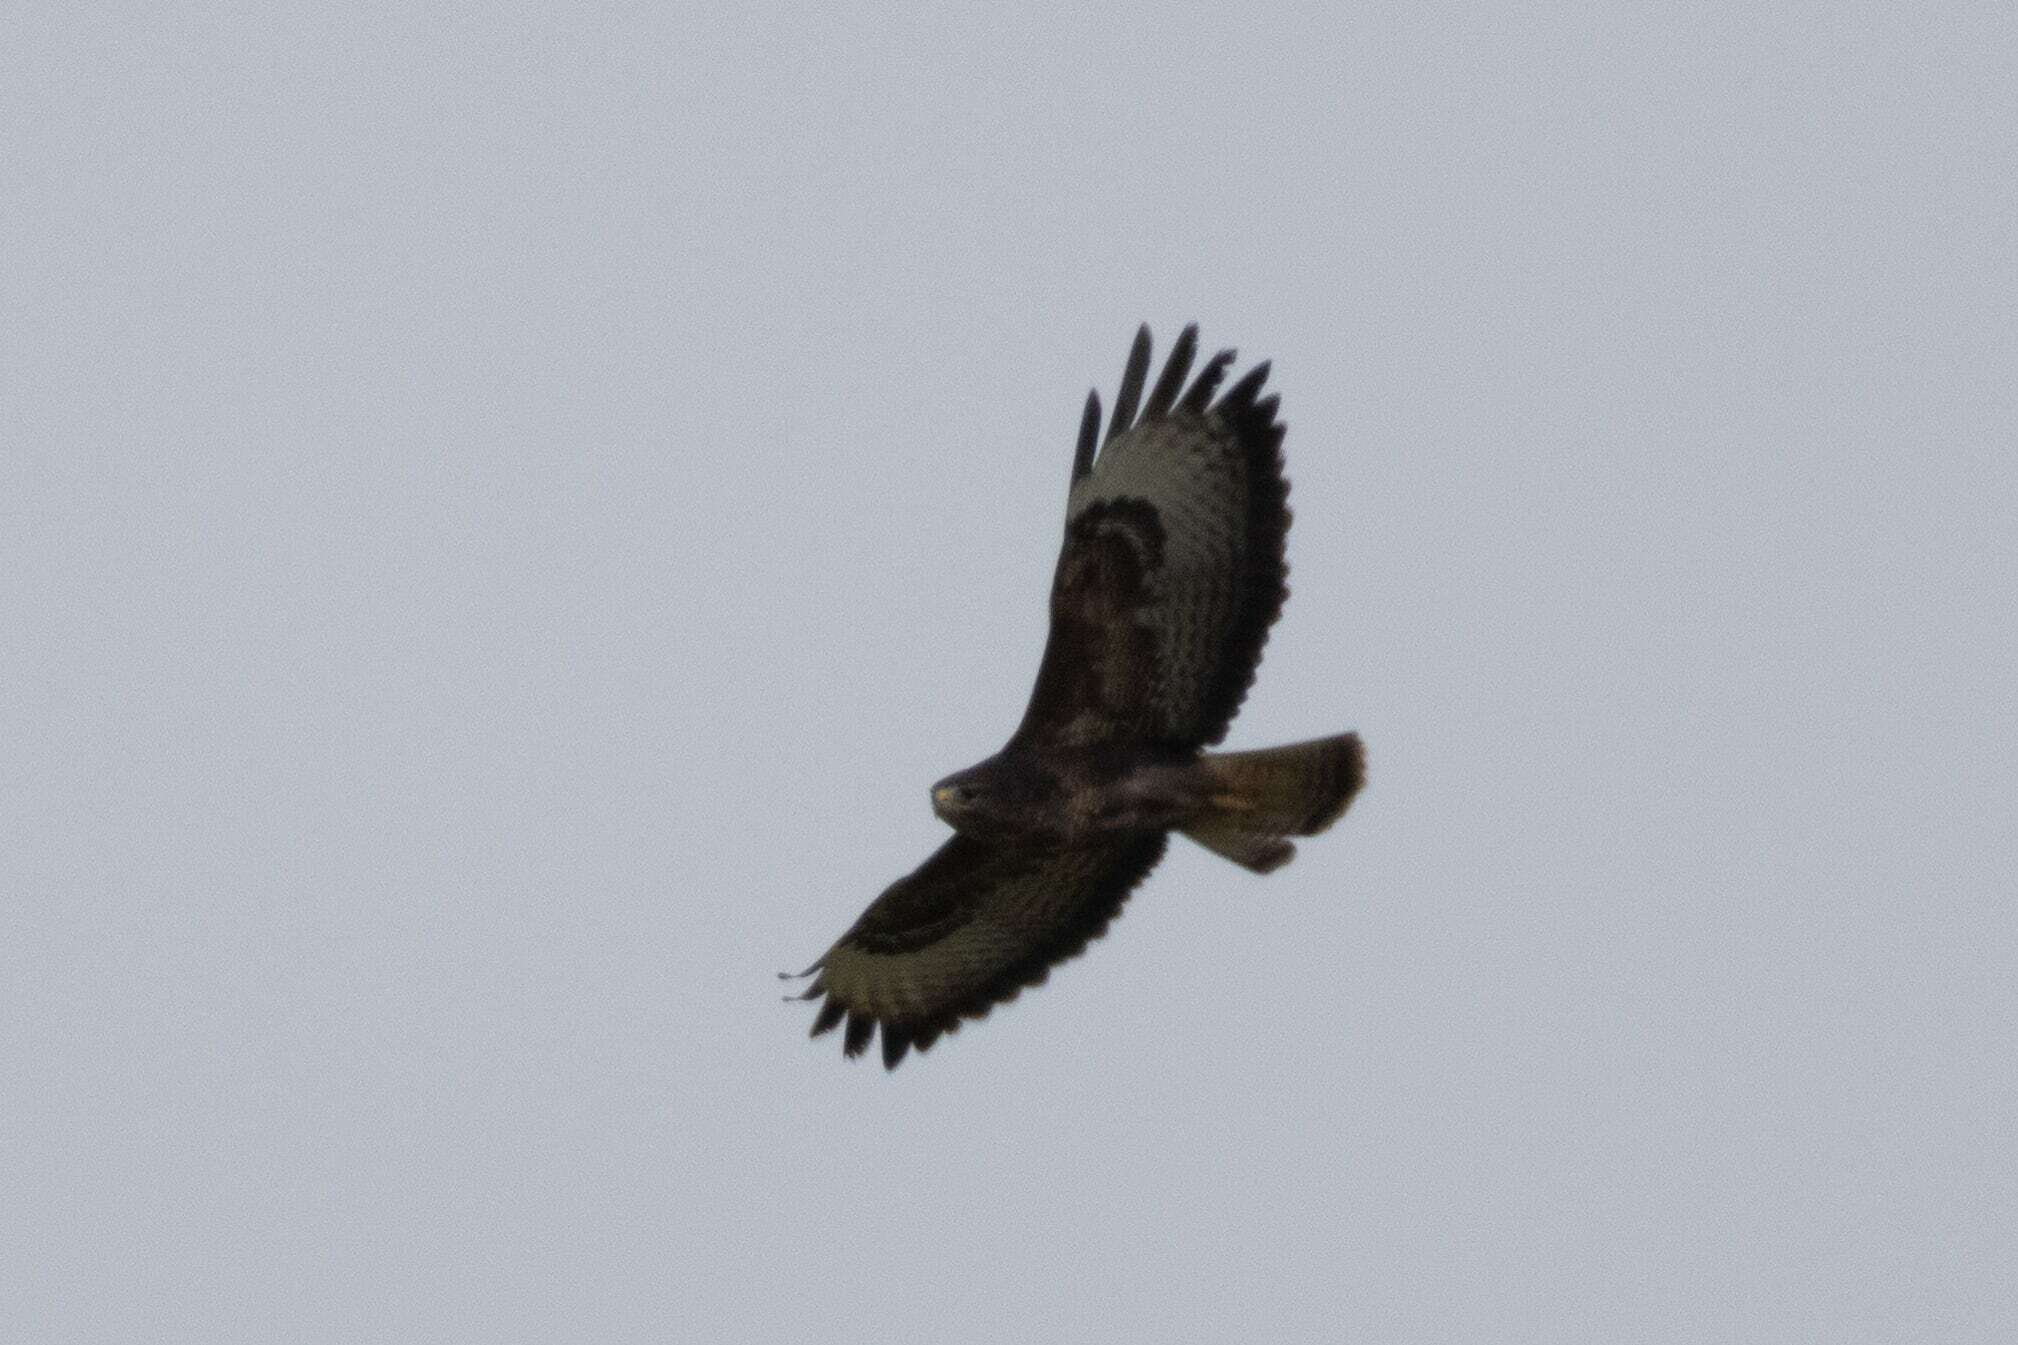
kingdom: Animalia
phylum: Chordata
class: Aves
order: Accipitriformes
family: Accipitridae
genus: Buteo
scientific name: Buteo buteo
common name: Common buzzard
